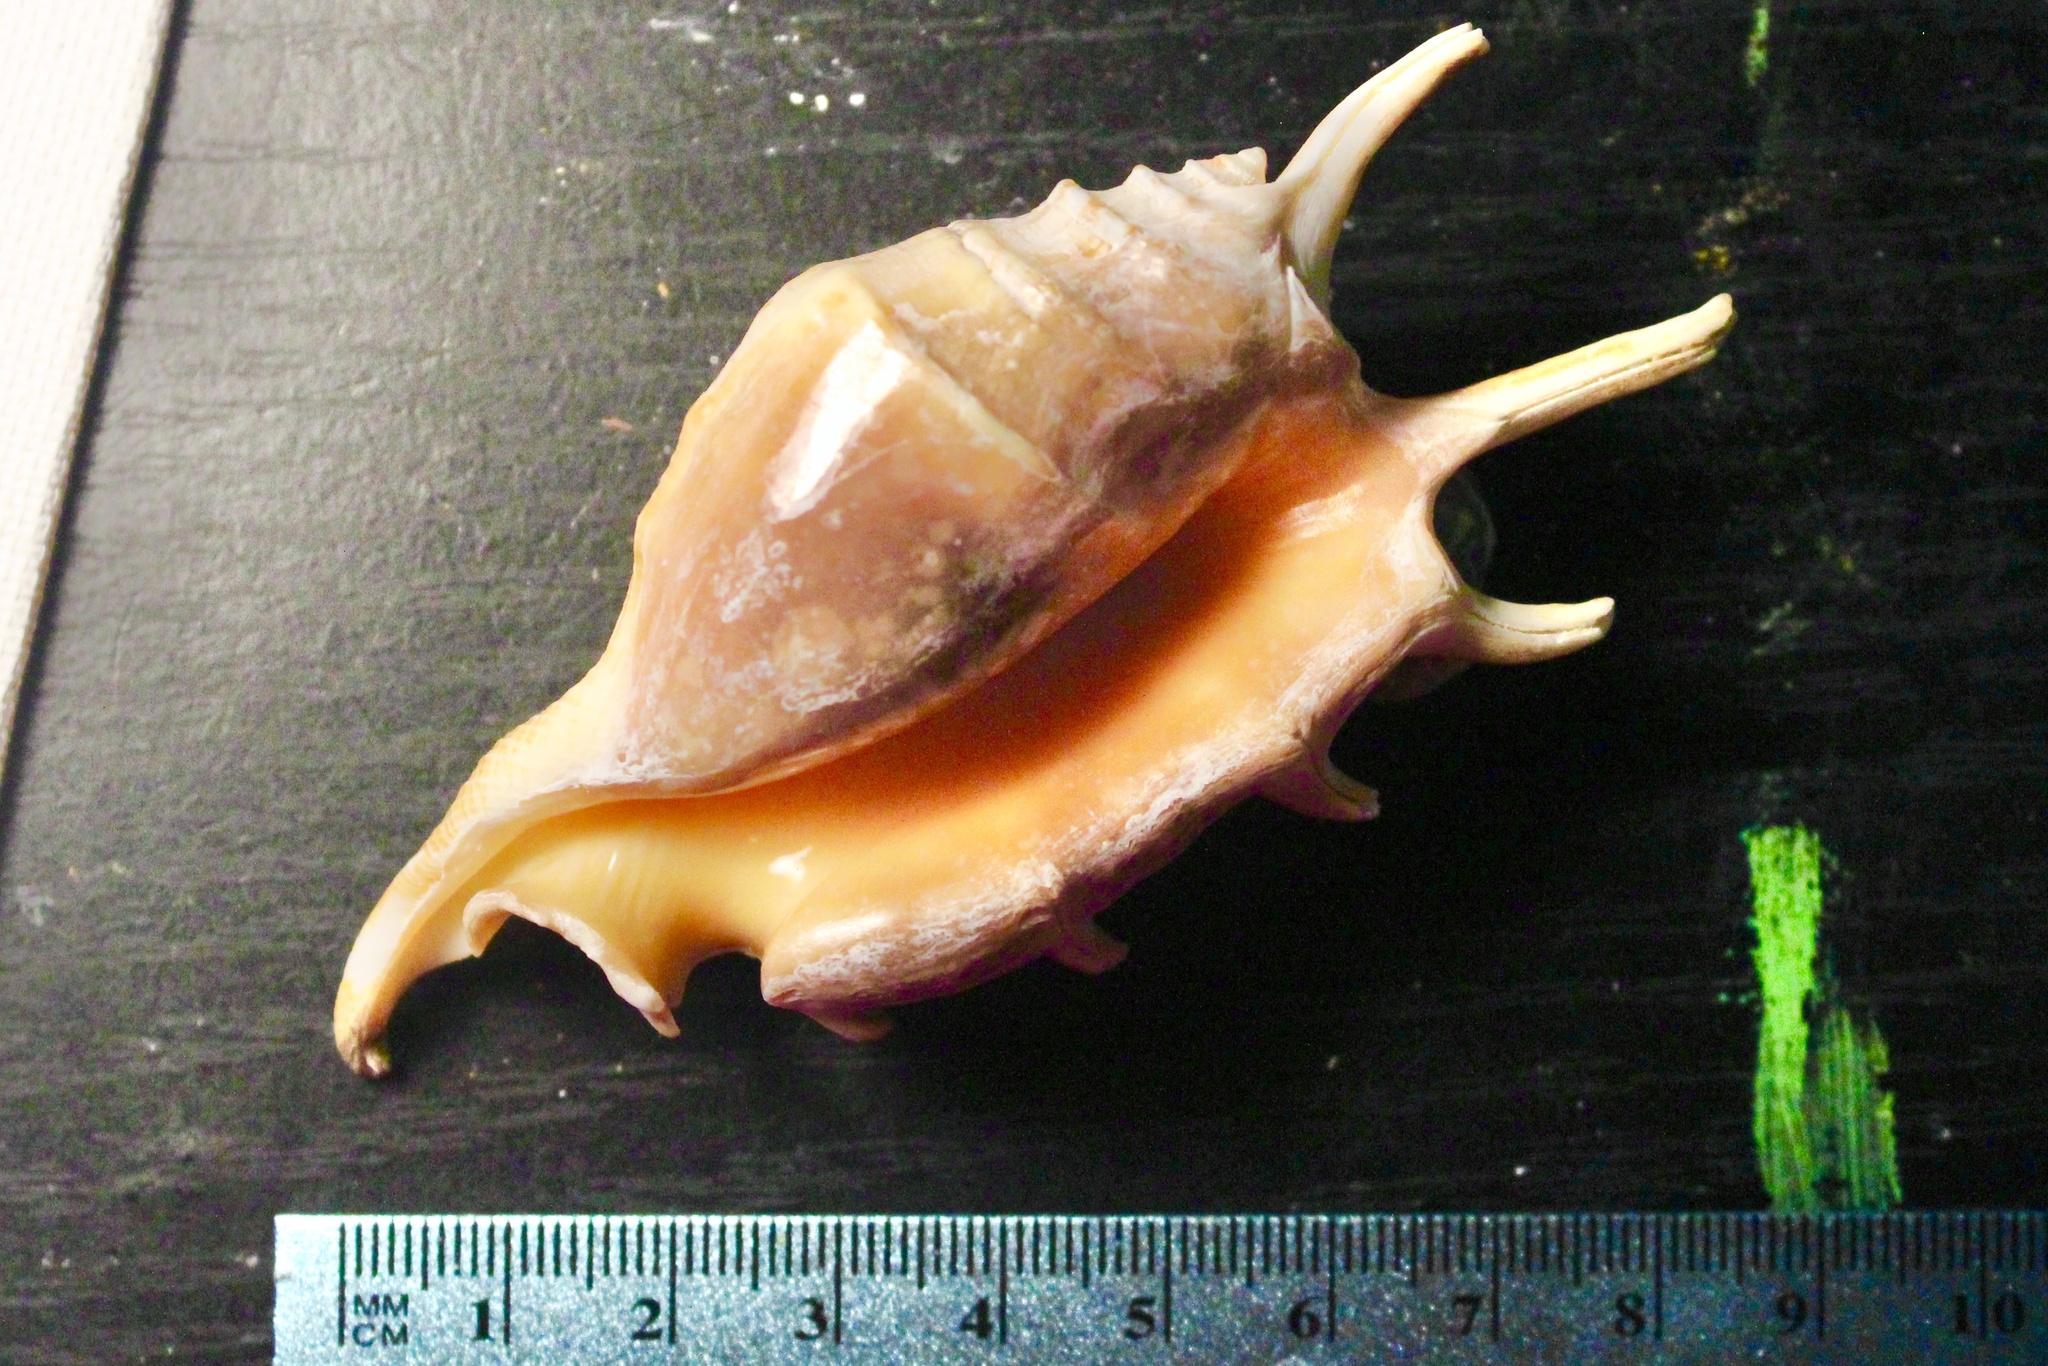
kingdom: Animalia
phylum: Mollusca
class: Gastropoda
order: Littorinimorpha
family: Strombidae
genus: Lambis
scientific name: Lambis lambis
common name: Common spider conch
